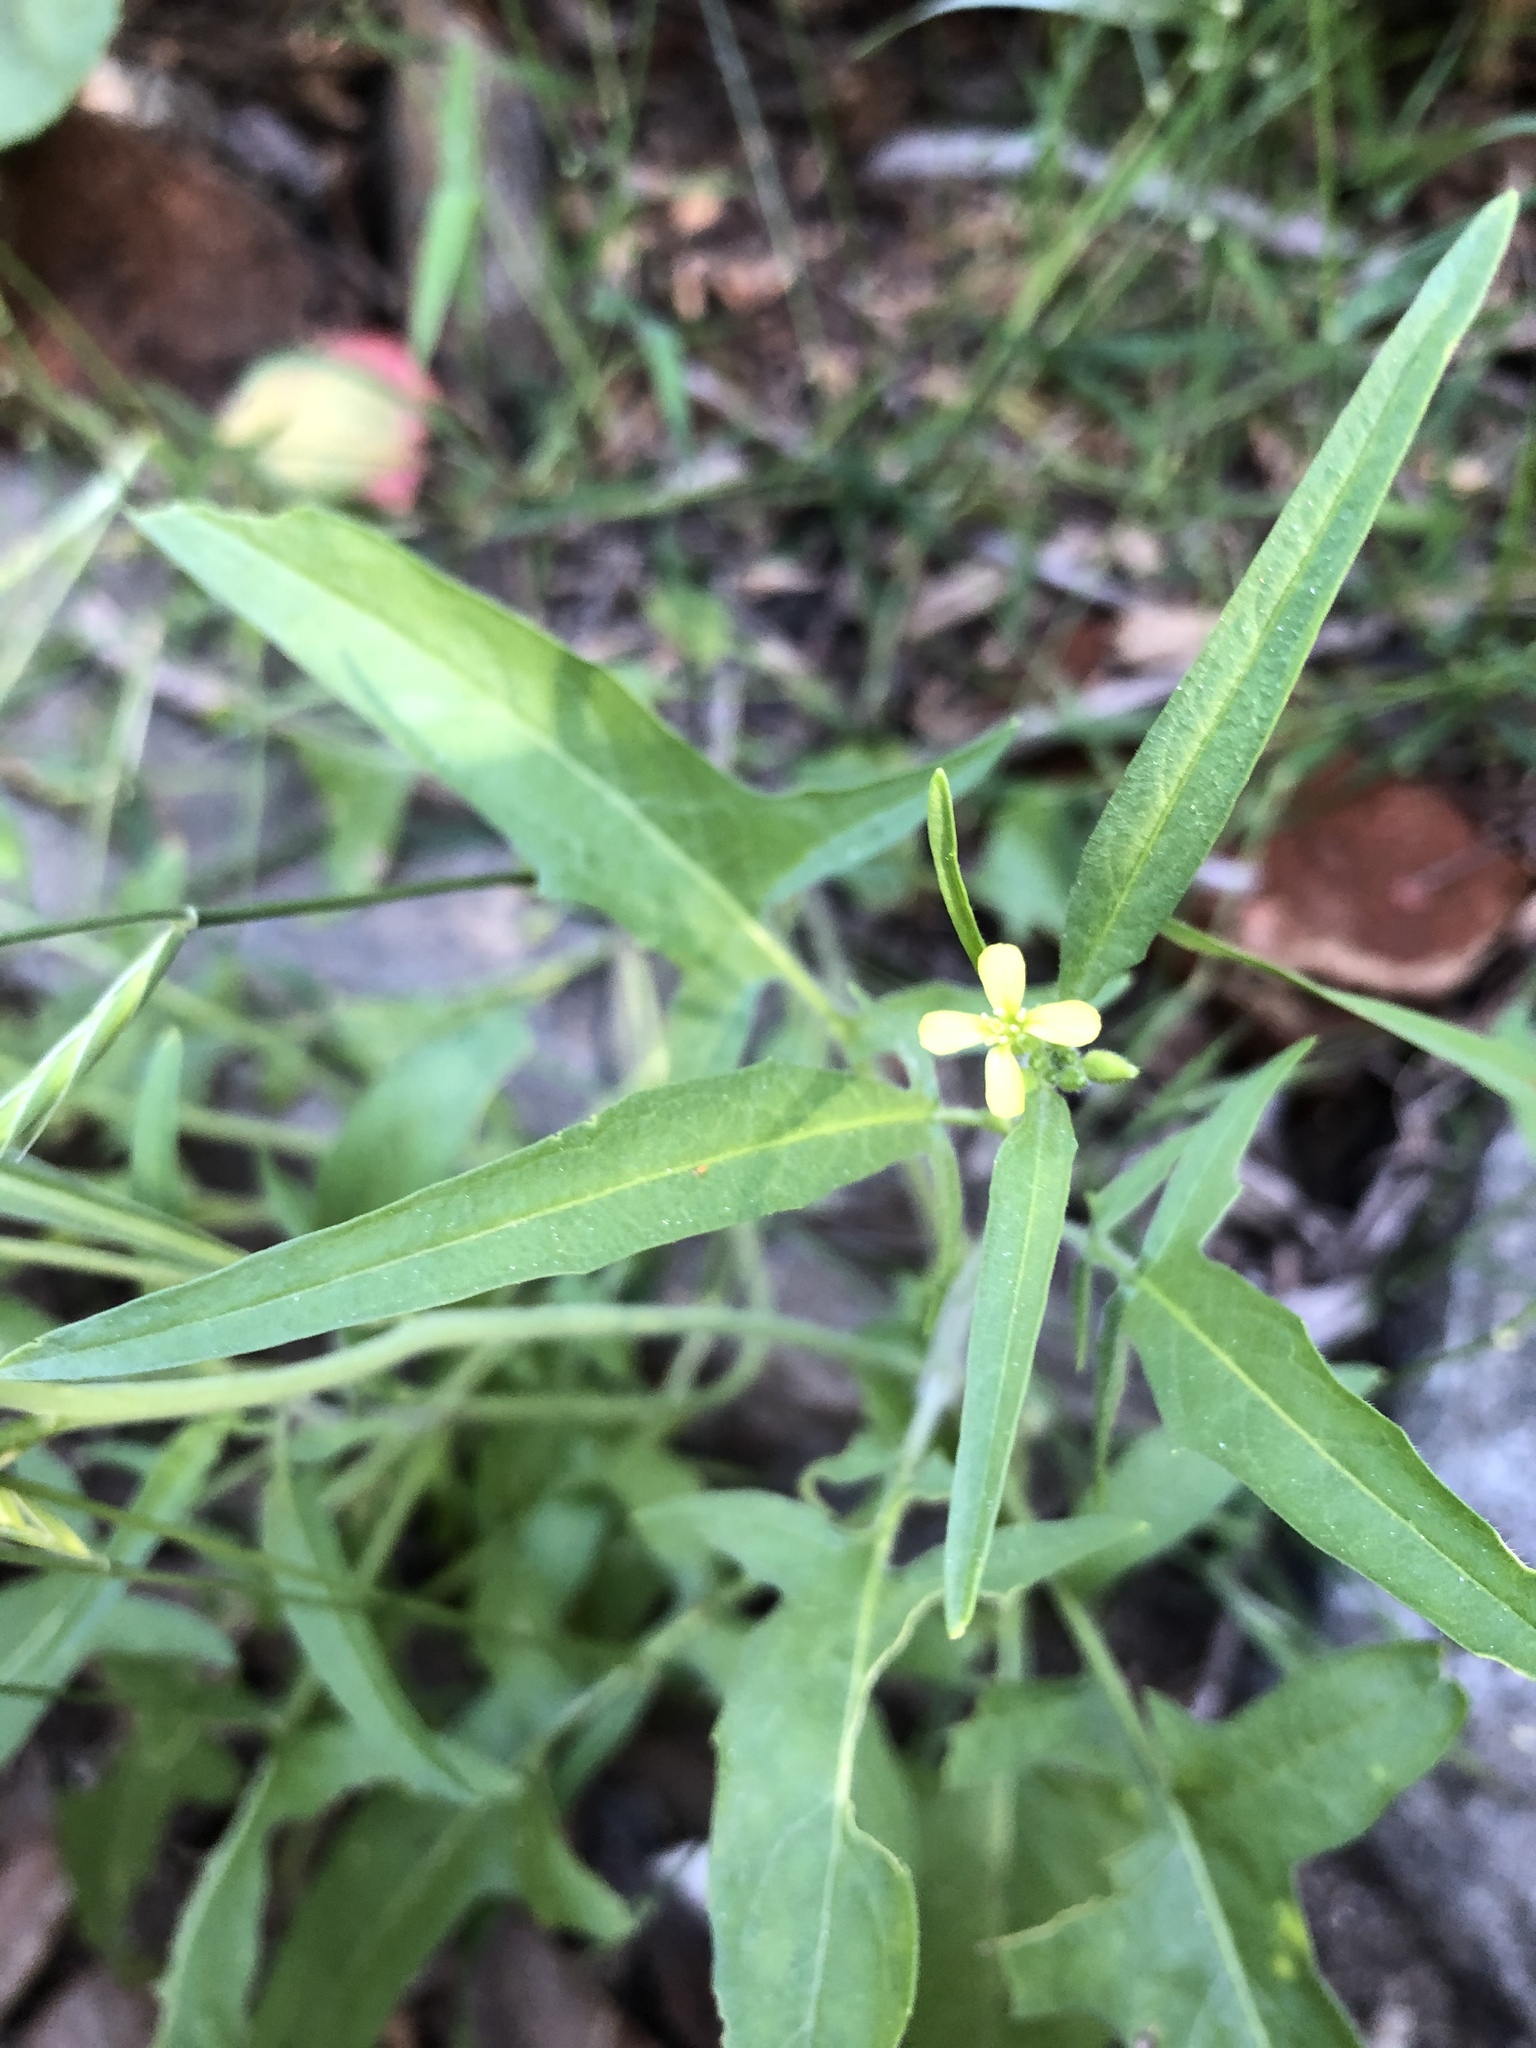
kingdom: Plantae
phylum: Tracheophyta
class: Magnoliopsida
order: Brassicales
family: Brassicaceae
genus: Sisymbrium
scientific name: Sisymbrium orientale
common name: Eastern rocket
